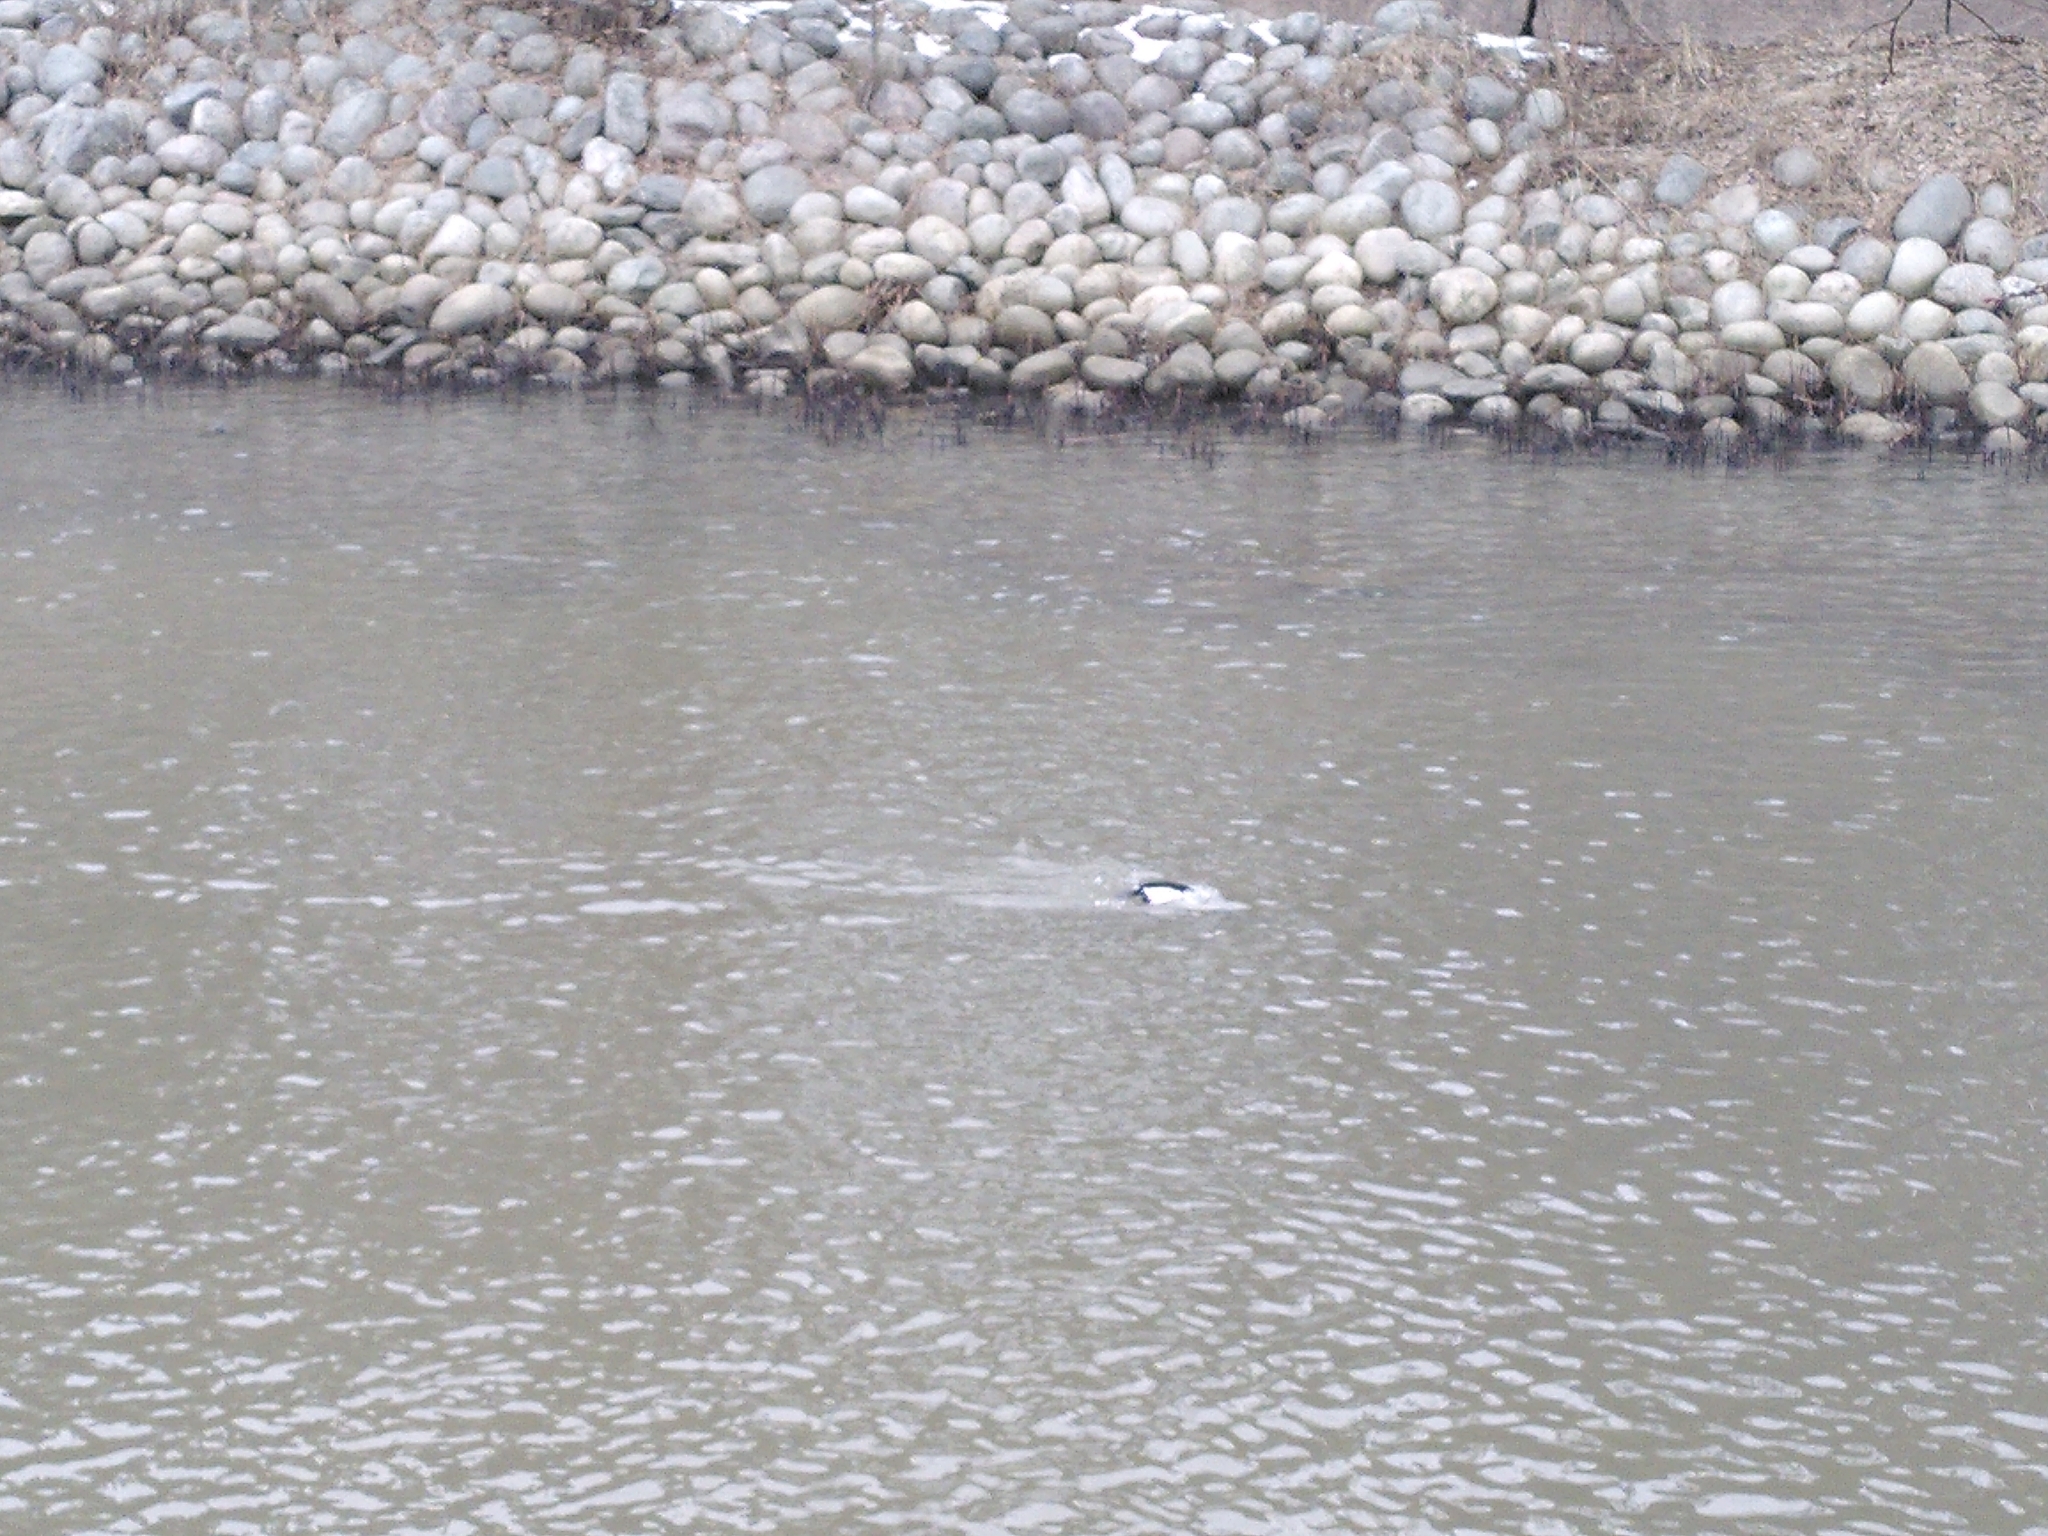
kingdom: Animalia
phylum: Chordata
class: Aves
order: Anseriformes
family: Anatidae
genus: Bucephala
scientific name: Bucephala clangula
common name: Common goldeneye
